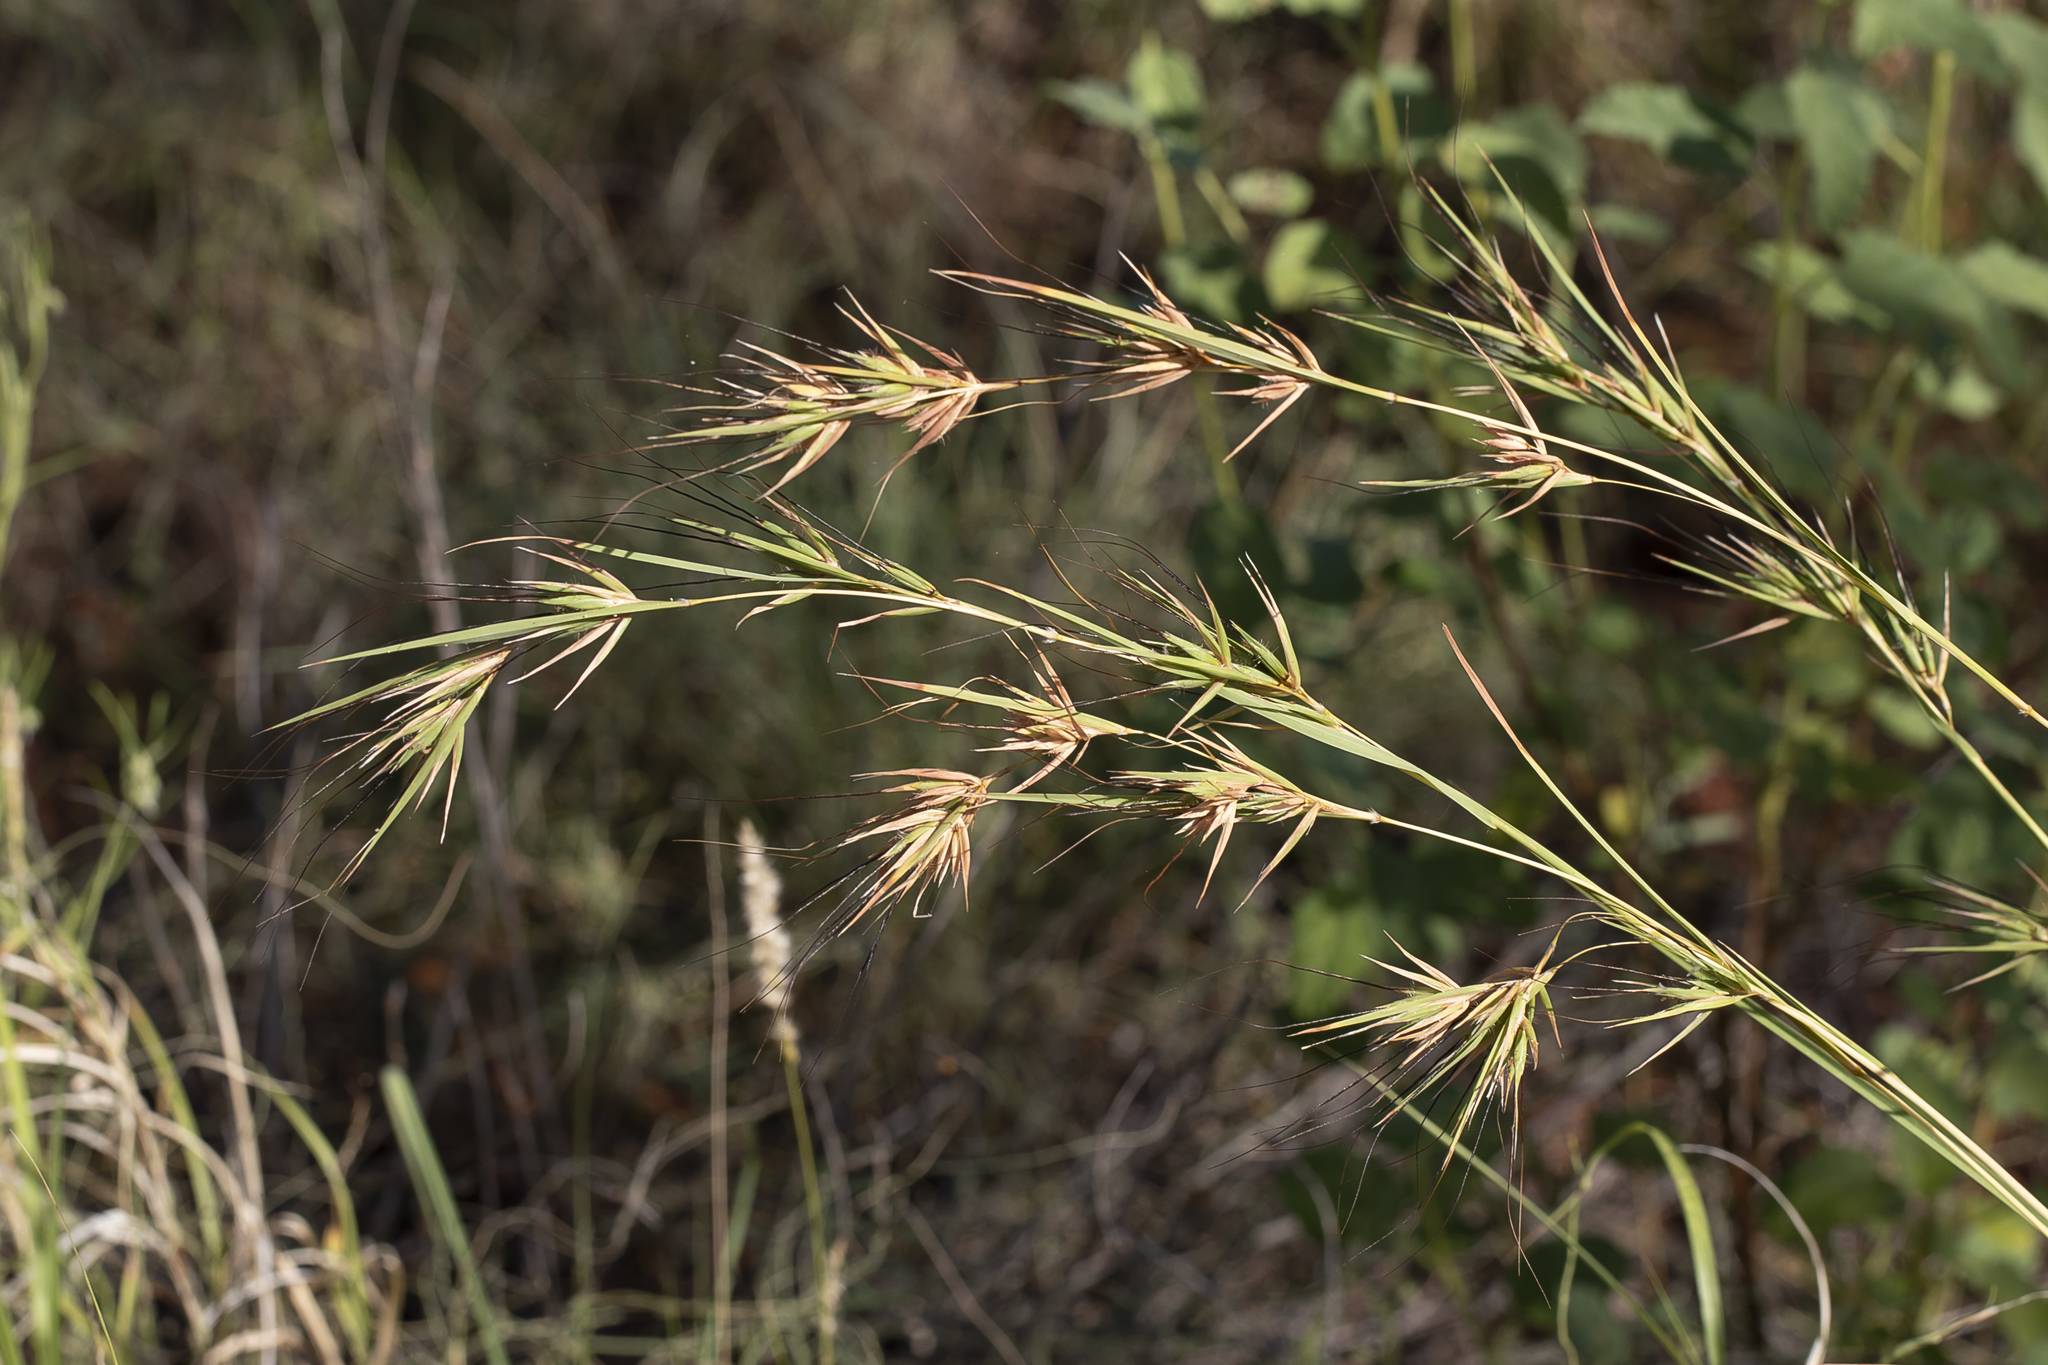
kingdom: Plantae
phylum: Tracheophyta
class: Liliopsida
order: Poales
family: Poaceae
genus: Themeda
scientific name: Themeda triandra
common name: Kangaroo grass
